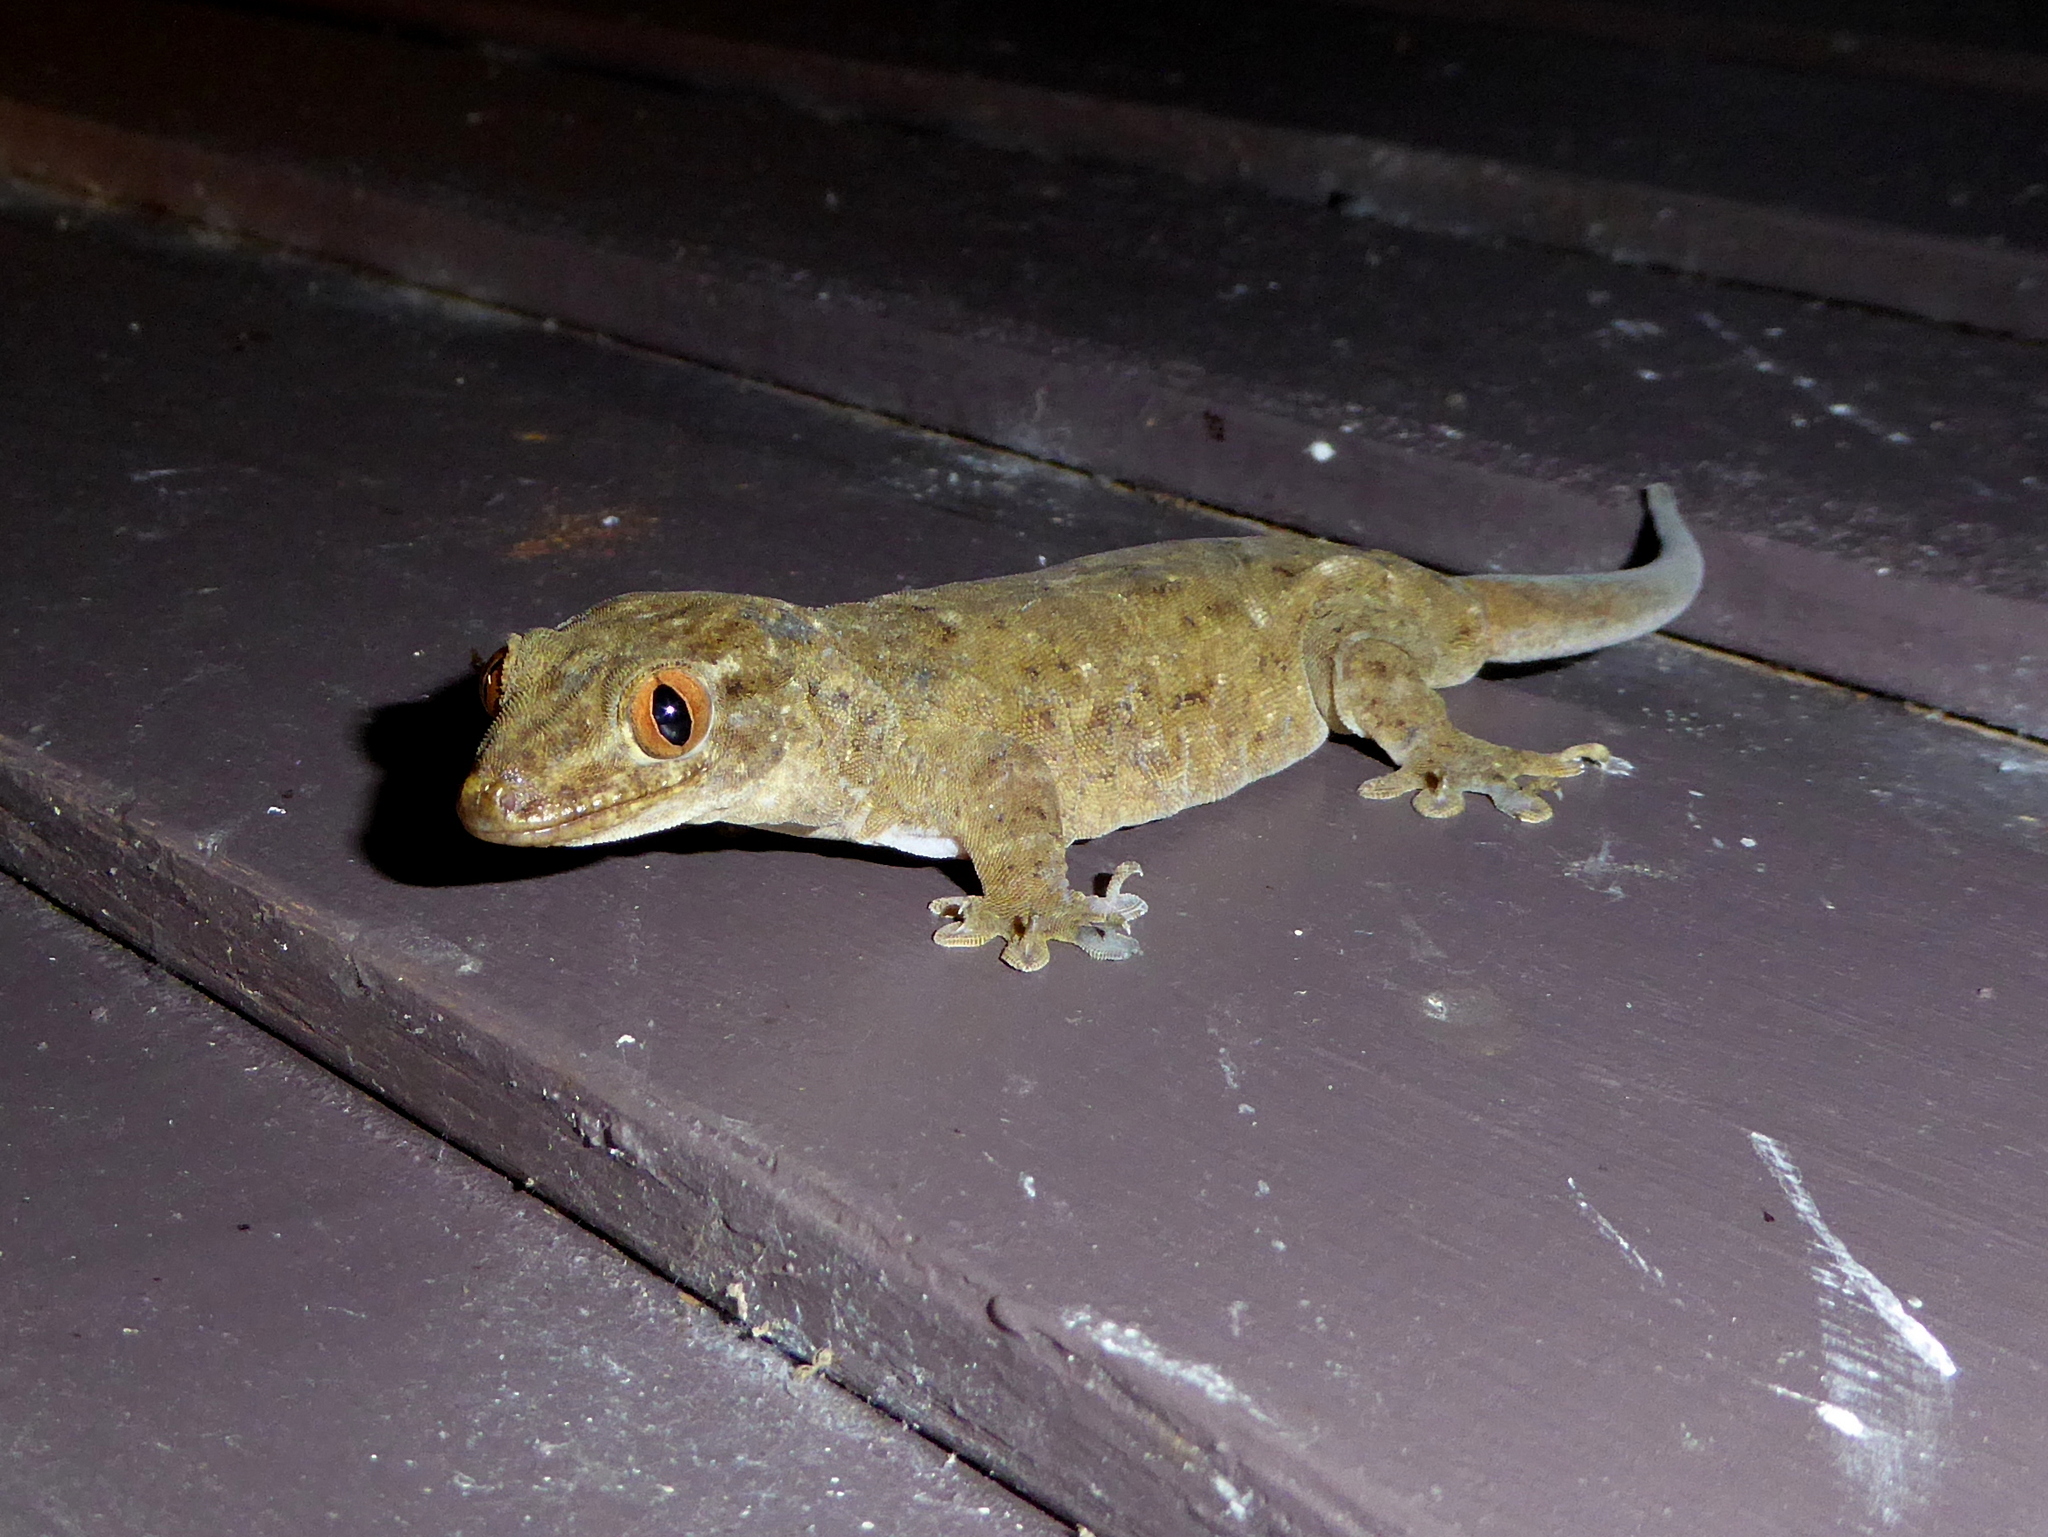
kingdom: Animalia
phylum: Chordata
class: Squamata
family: Gekkonidae
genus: Gehyra
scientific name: Gehyra oceanica
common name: Pacific dtella
